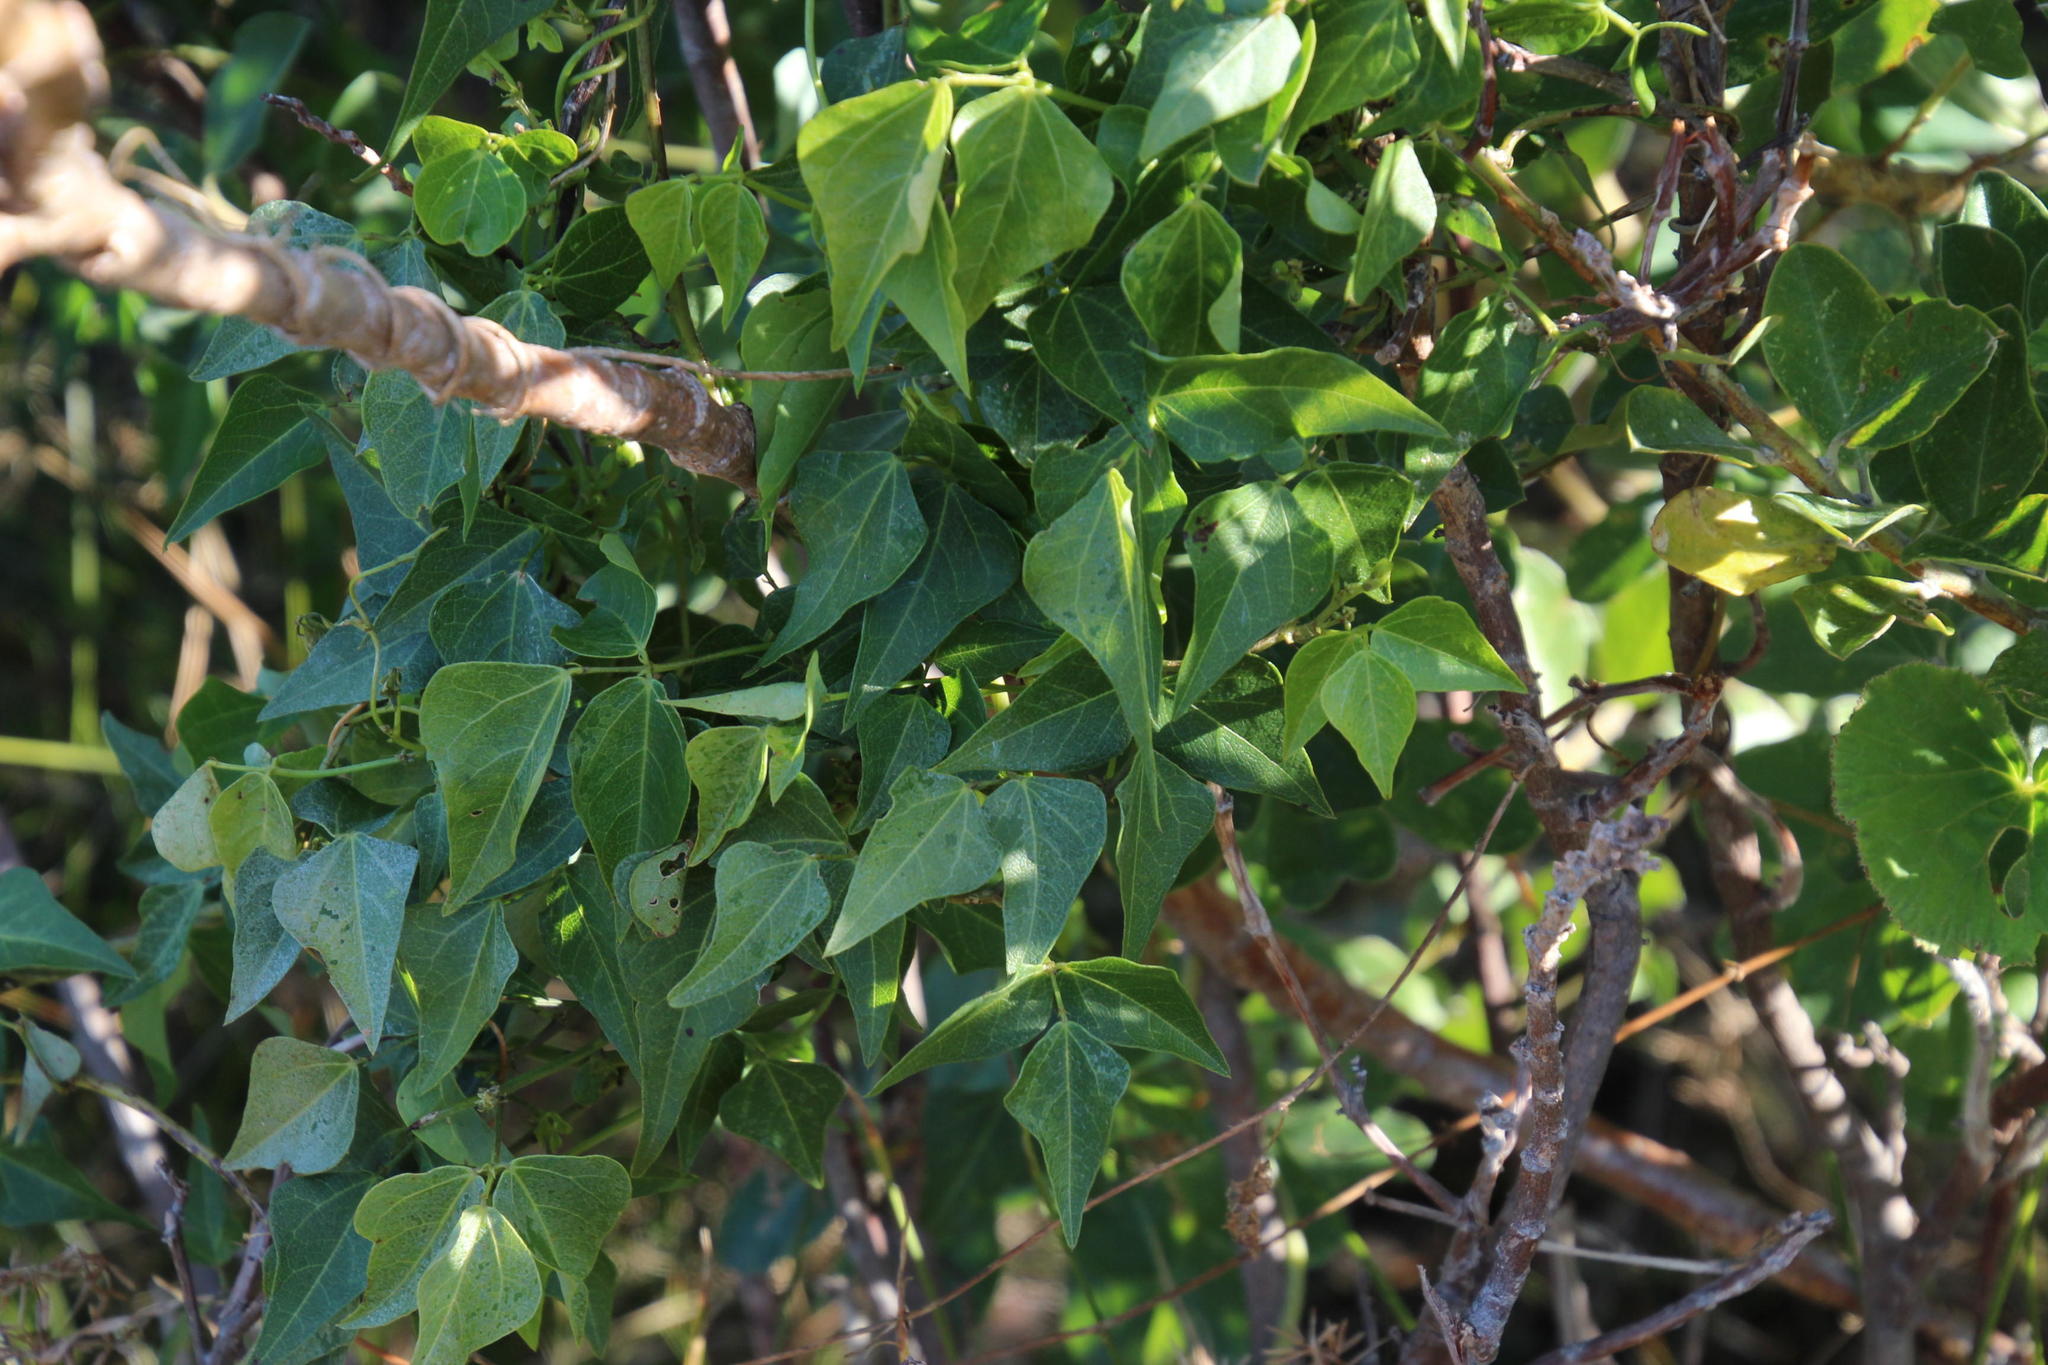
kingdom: Plantae
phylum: Tracheophyta
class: Magnoliopsida
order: Fabales
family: Fabaceae
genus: Dipogon
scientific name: Dipogon lignosus
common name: Okie bean
